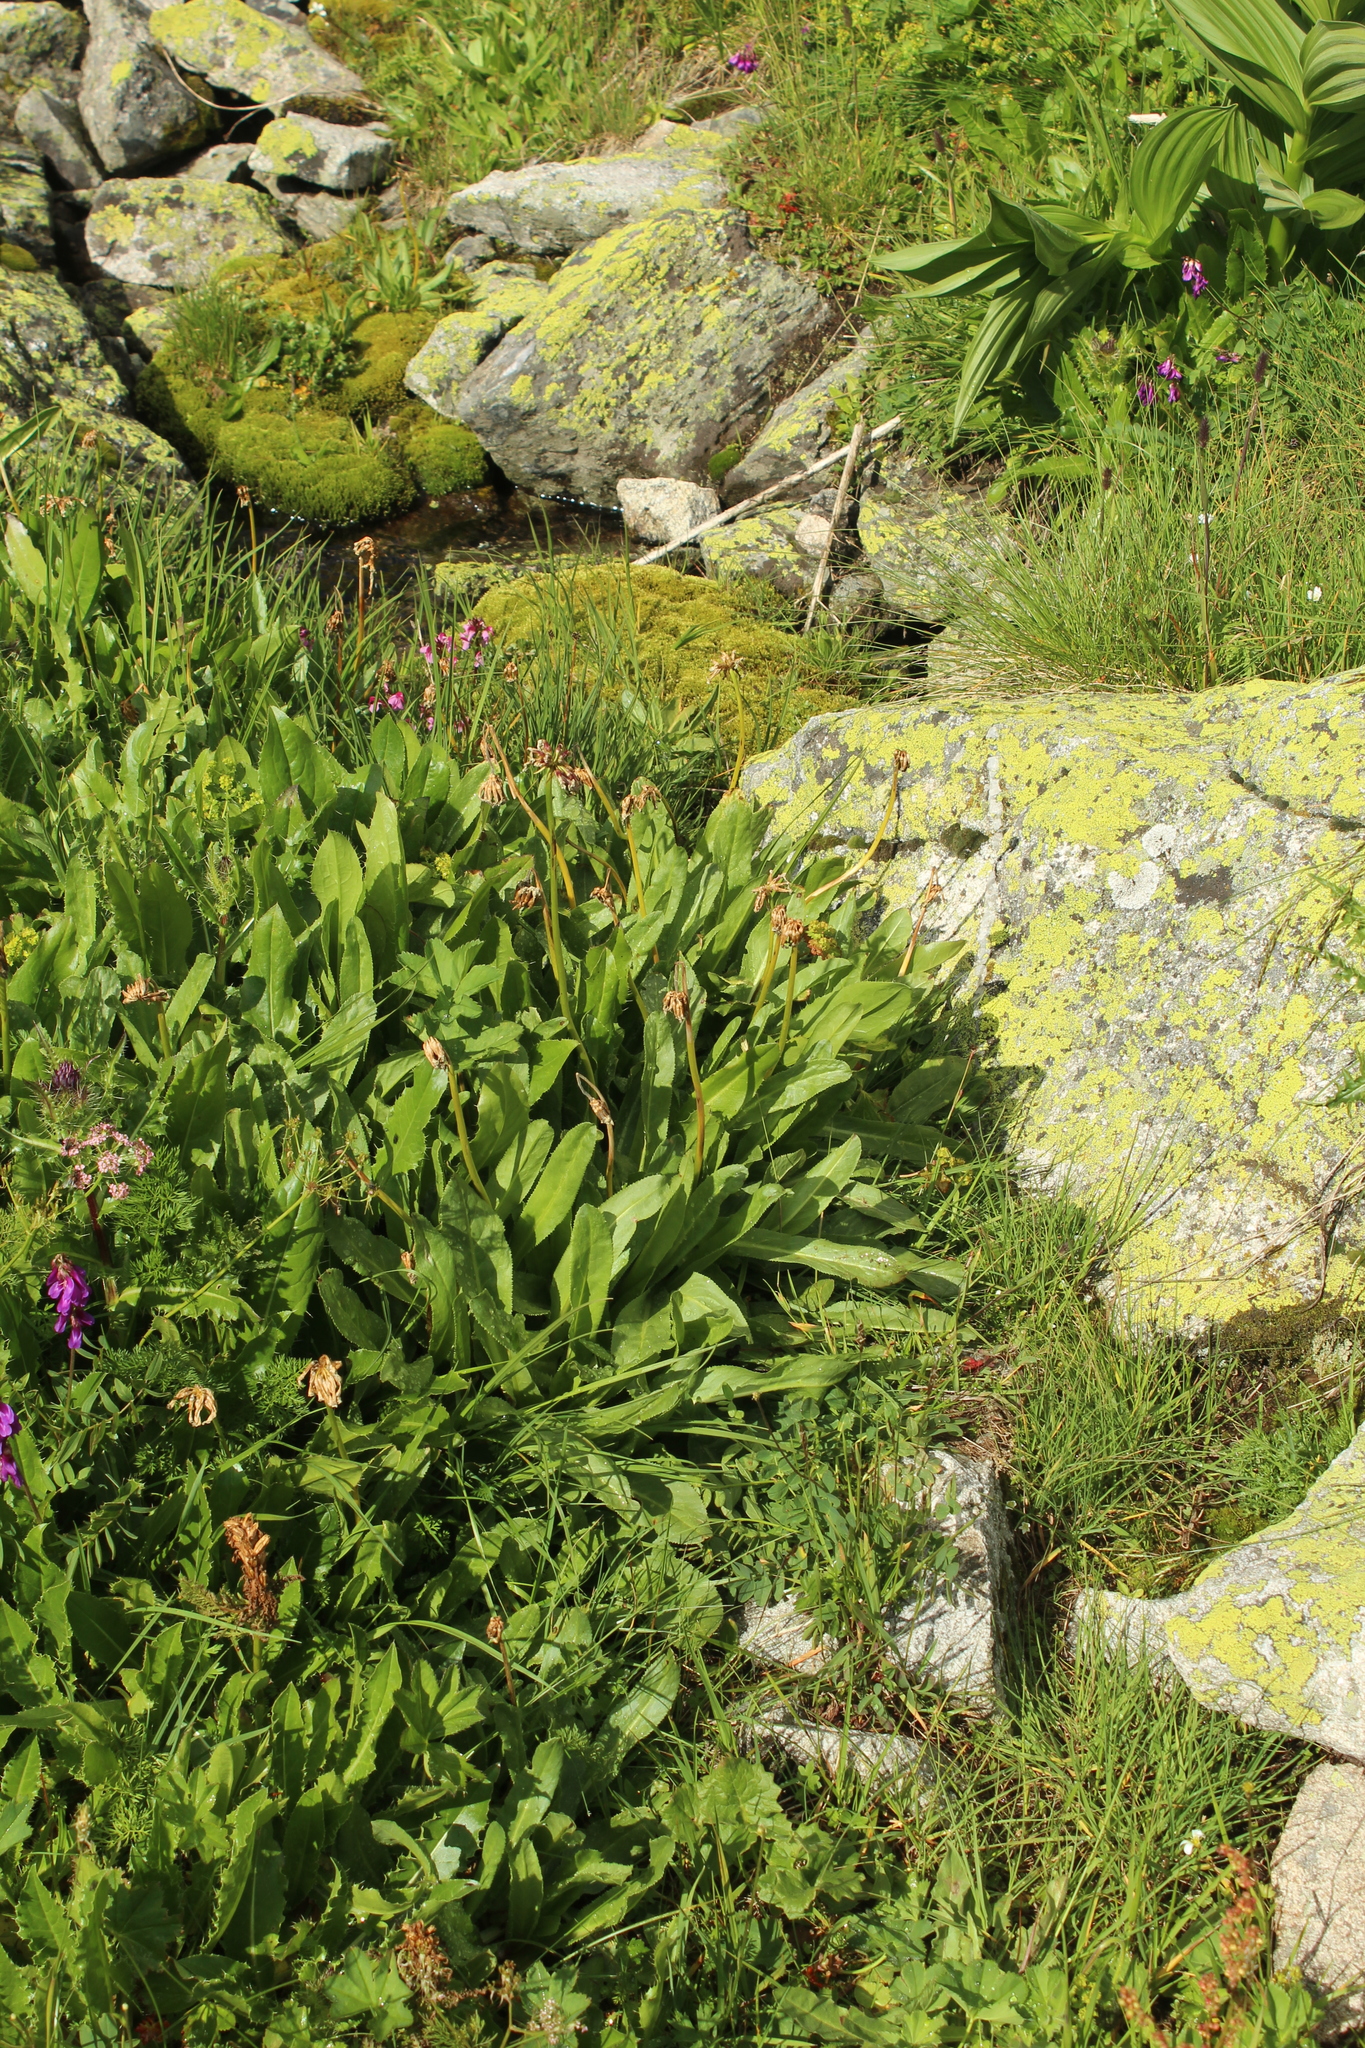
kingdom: Plantae
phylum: Tracheophyta
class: Magnoliopsida
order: Ericales
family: Primulaceae
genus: Primula
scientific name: Primula auriculata
